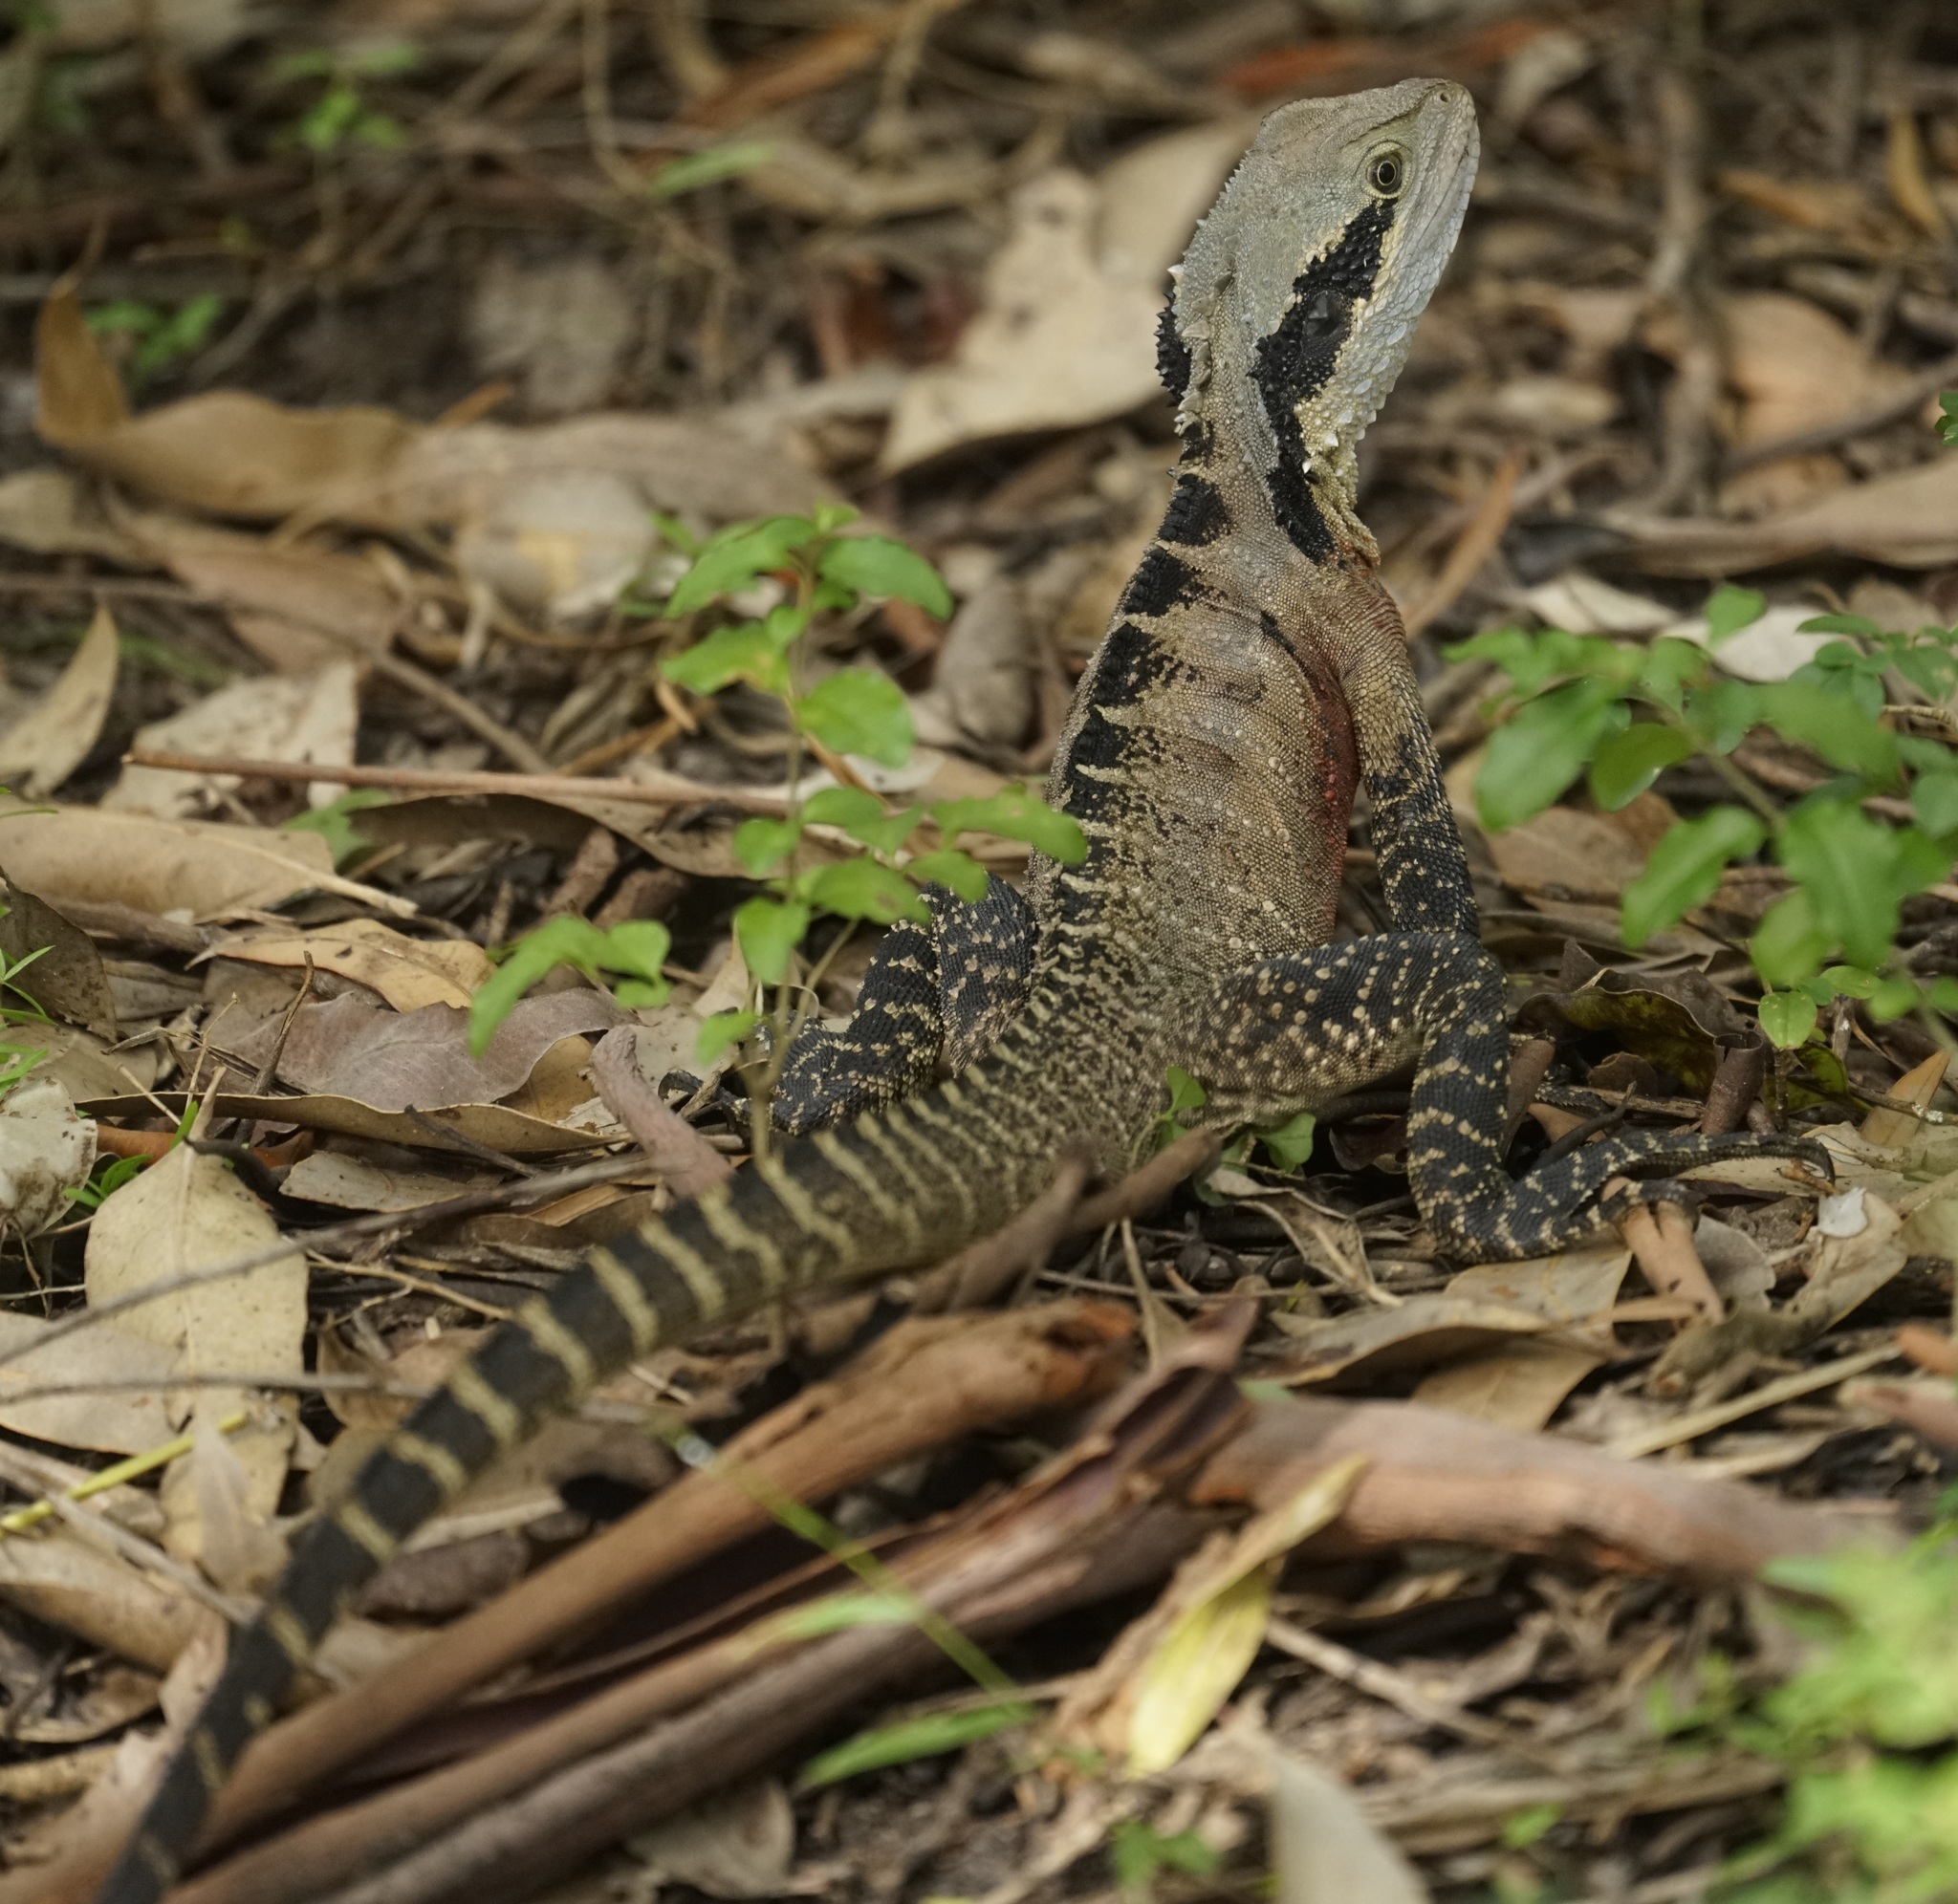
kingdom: Animalia
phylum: Chordata
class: Squamata
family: Agamidae
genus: Intellagama
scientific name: Intellagama lesueurii
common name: Eastern water dragon
